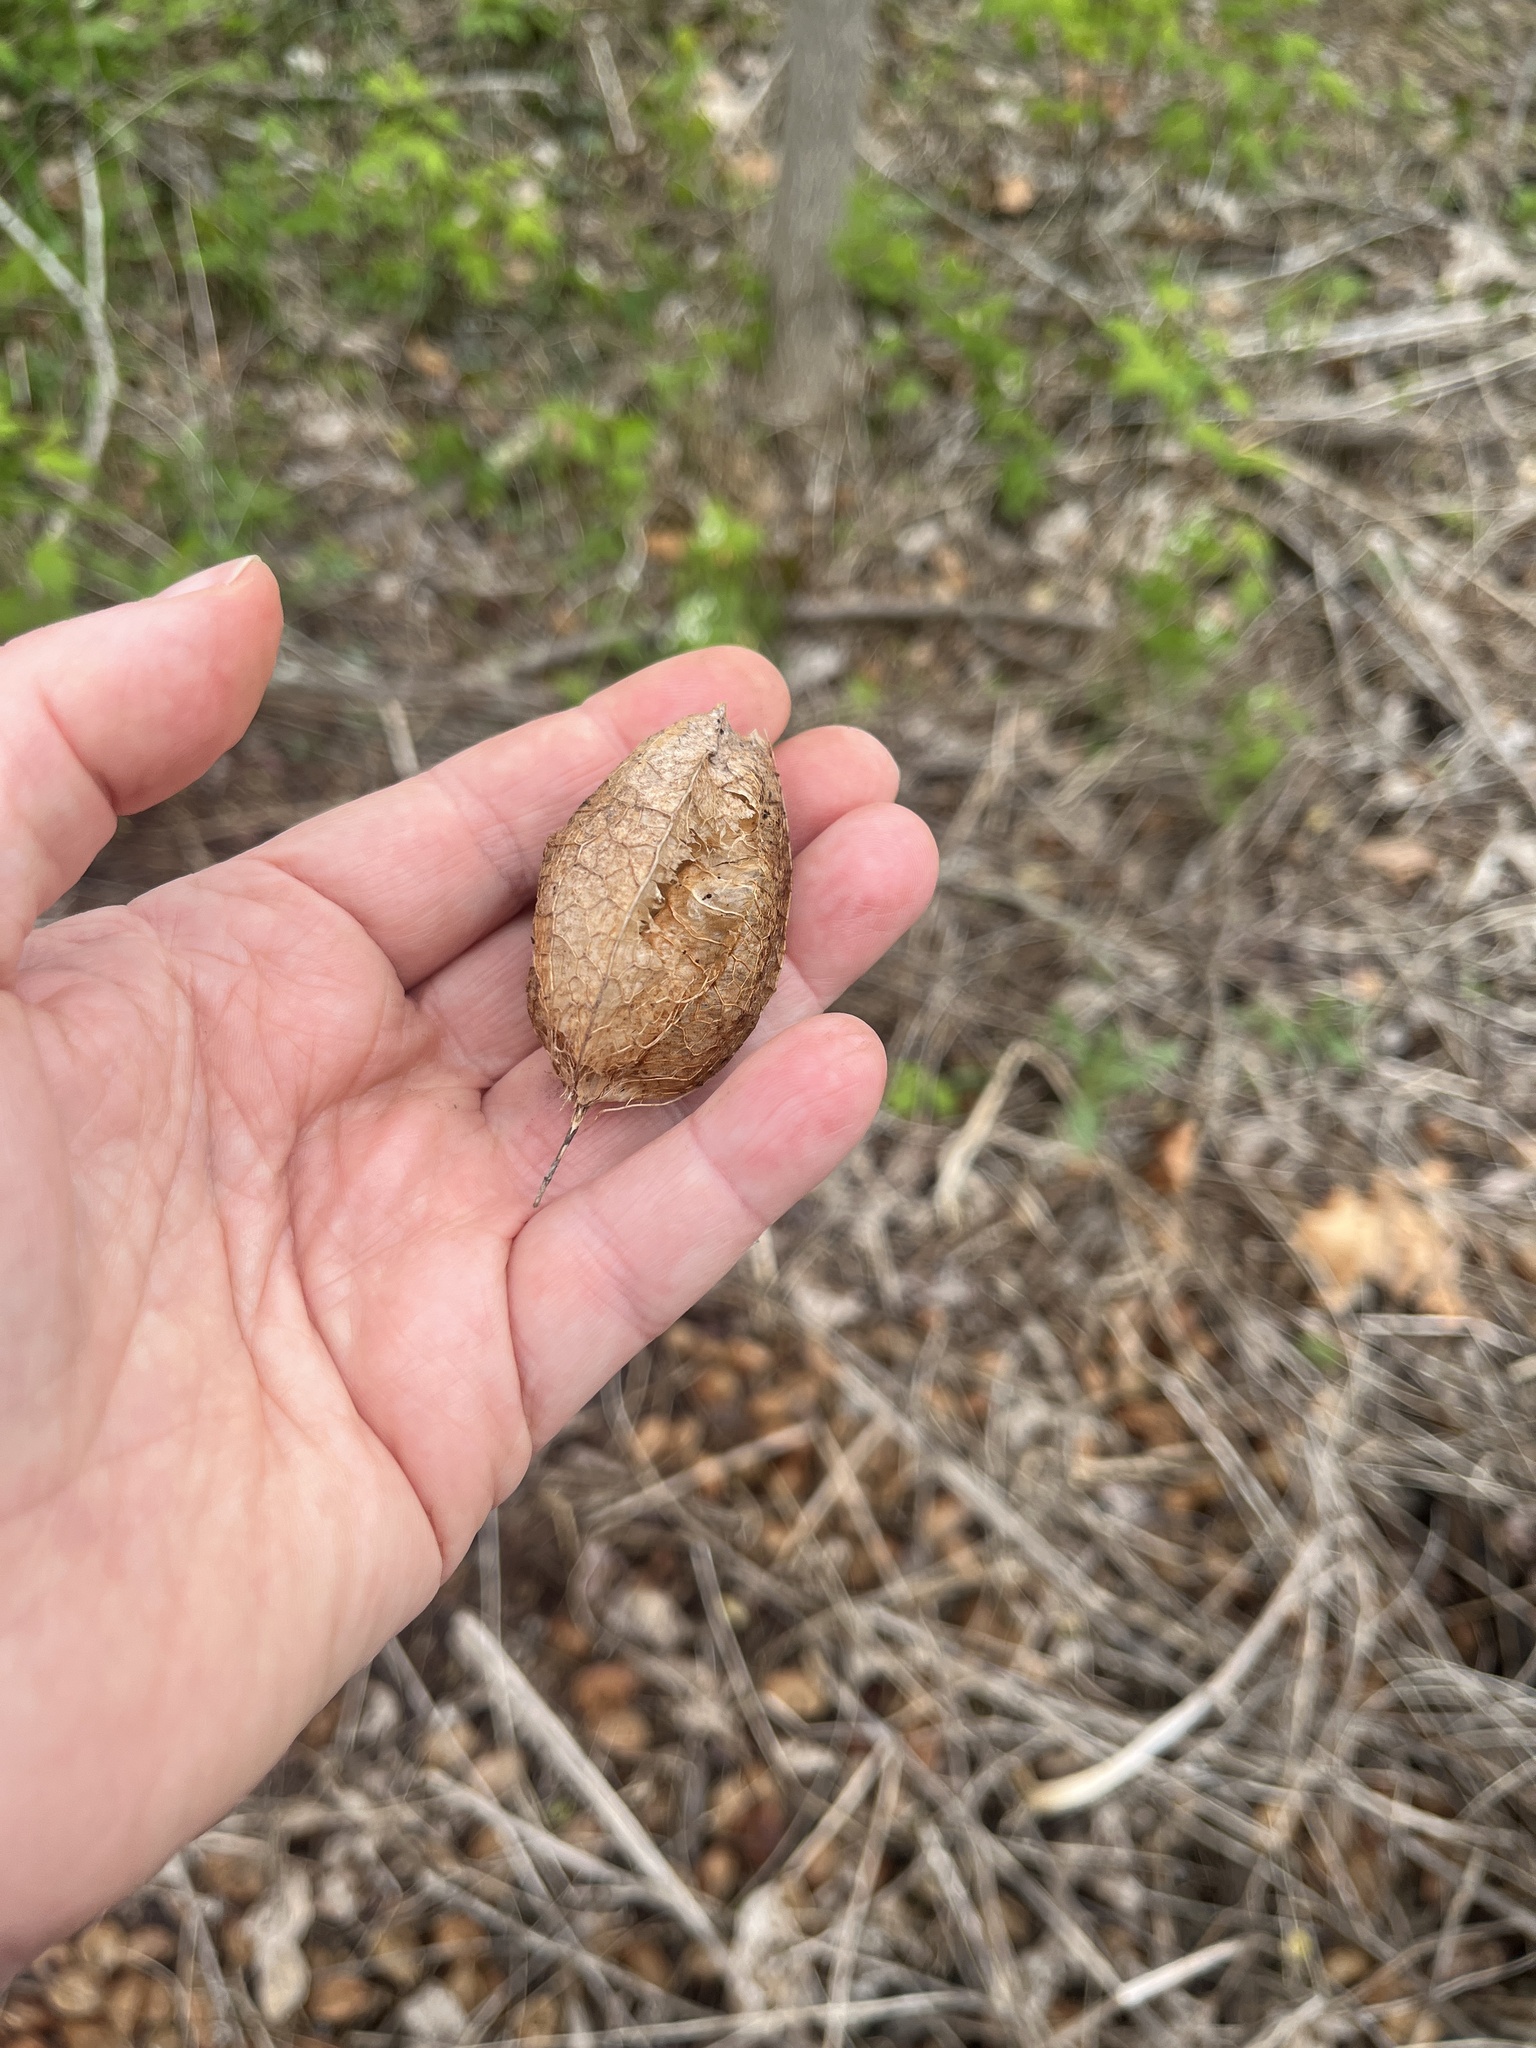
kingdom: Plantae
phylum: Tracheophyta
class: Magnoliopsida
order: Crossosomatales
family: Staphyleaceae
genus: Staphylea
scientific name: Staphylea trifolia
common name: American bladdernut
